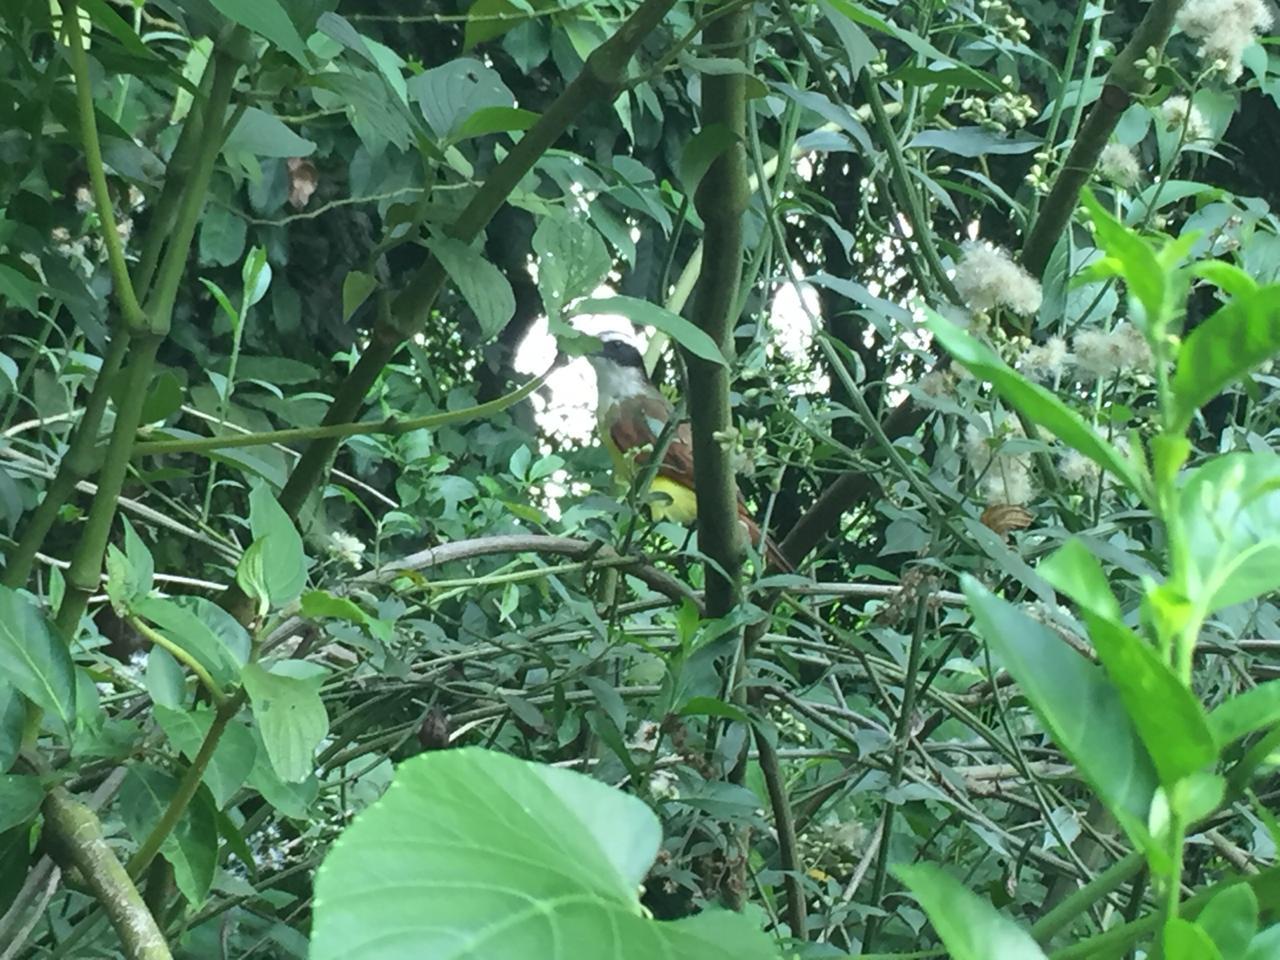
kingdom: Animalia
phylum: Chordata
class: Aves
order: Passeriformes
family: Tyrannidae
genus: Pitangus
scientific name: Pitangus sulphuratus
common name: Great kiskadee
